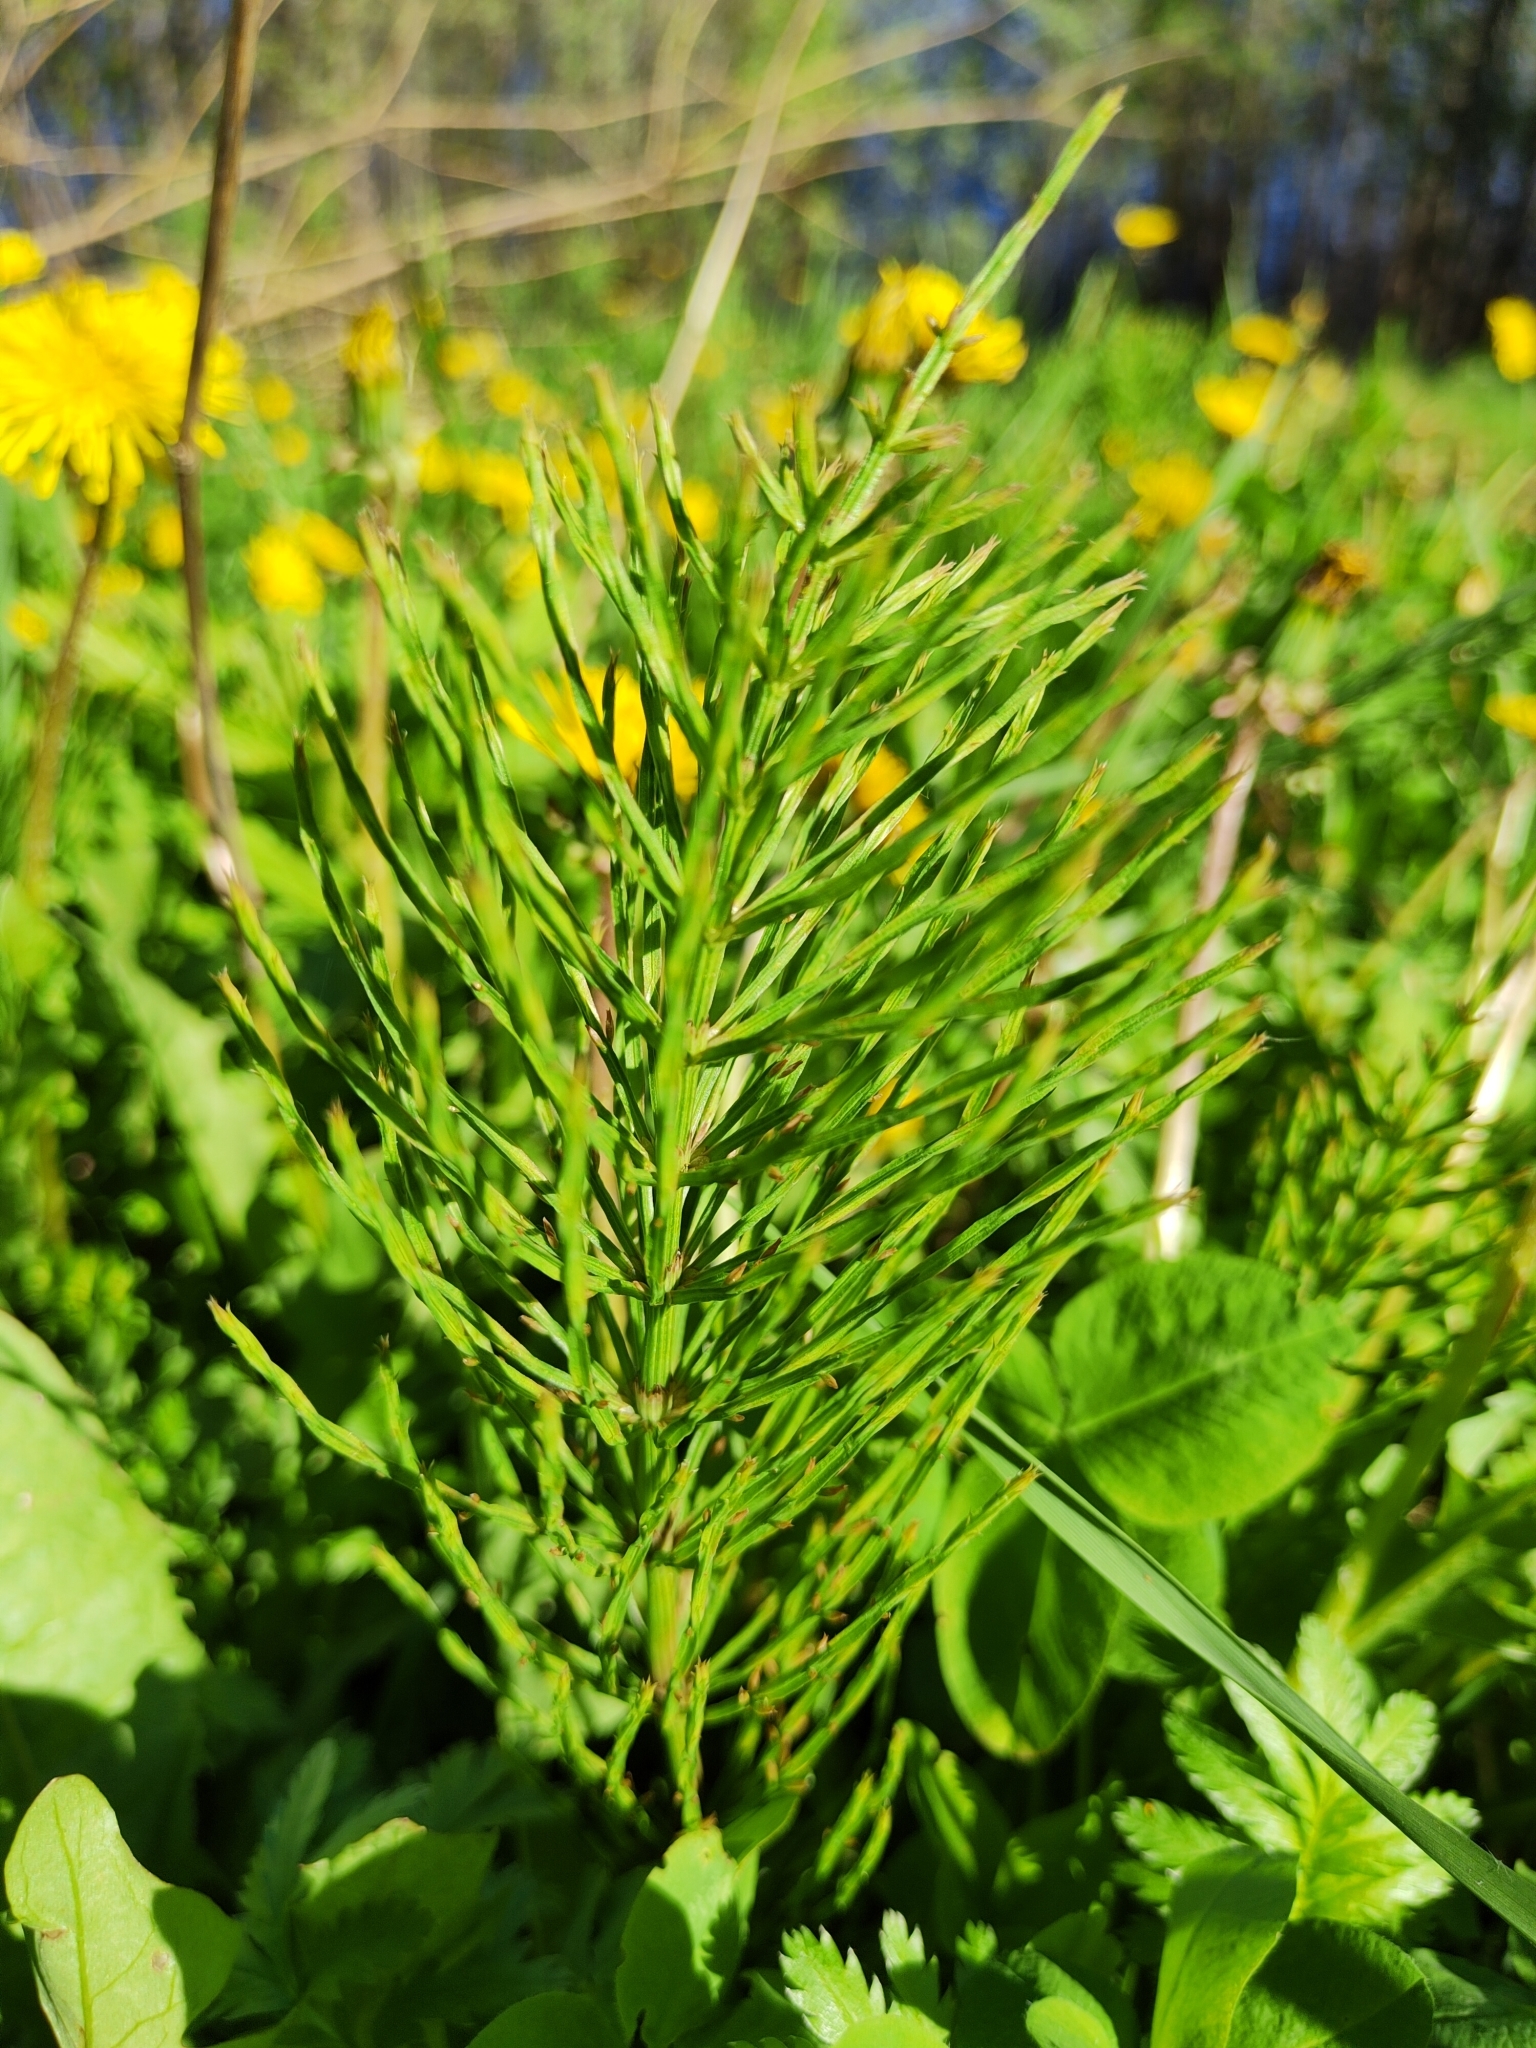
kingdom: Plantae
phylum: Tracheophyta
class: Polypodiopsida
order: Equisetales
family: Equisetaceae
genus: Equisetum
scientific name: Equisetum arvense
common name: Field horsetail
